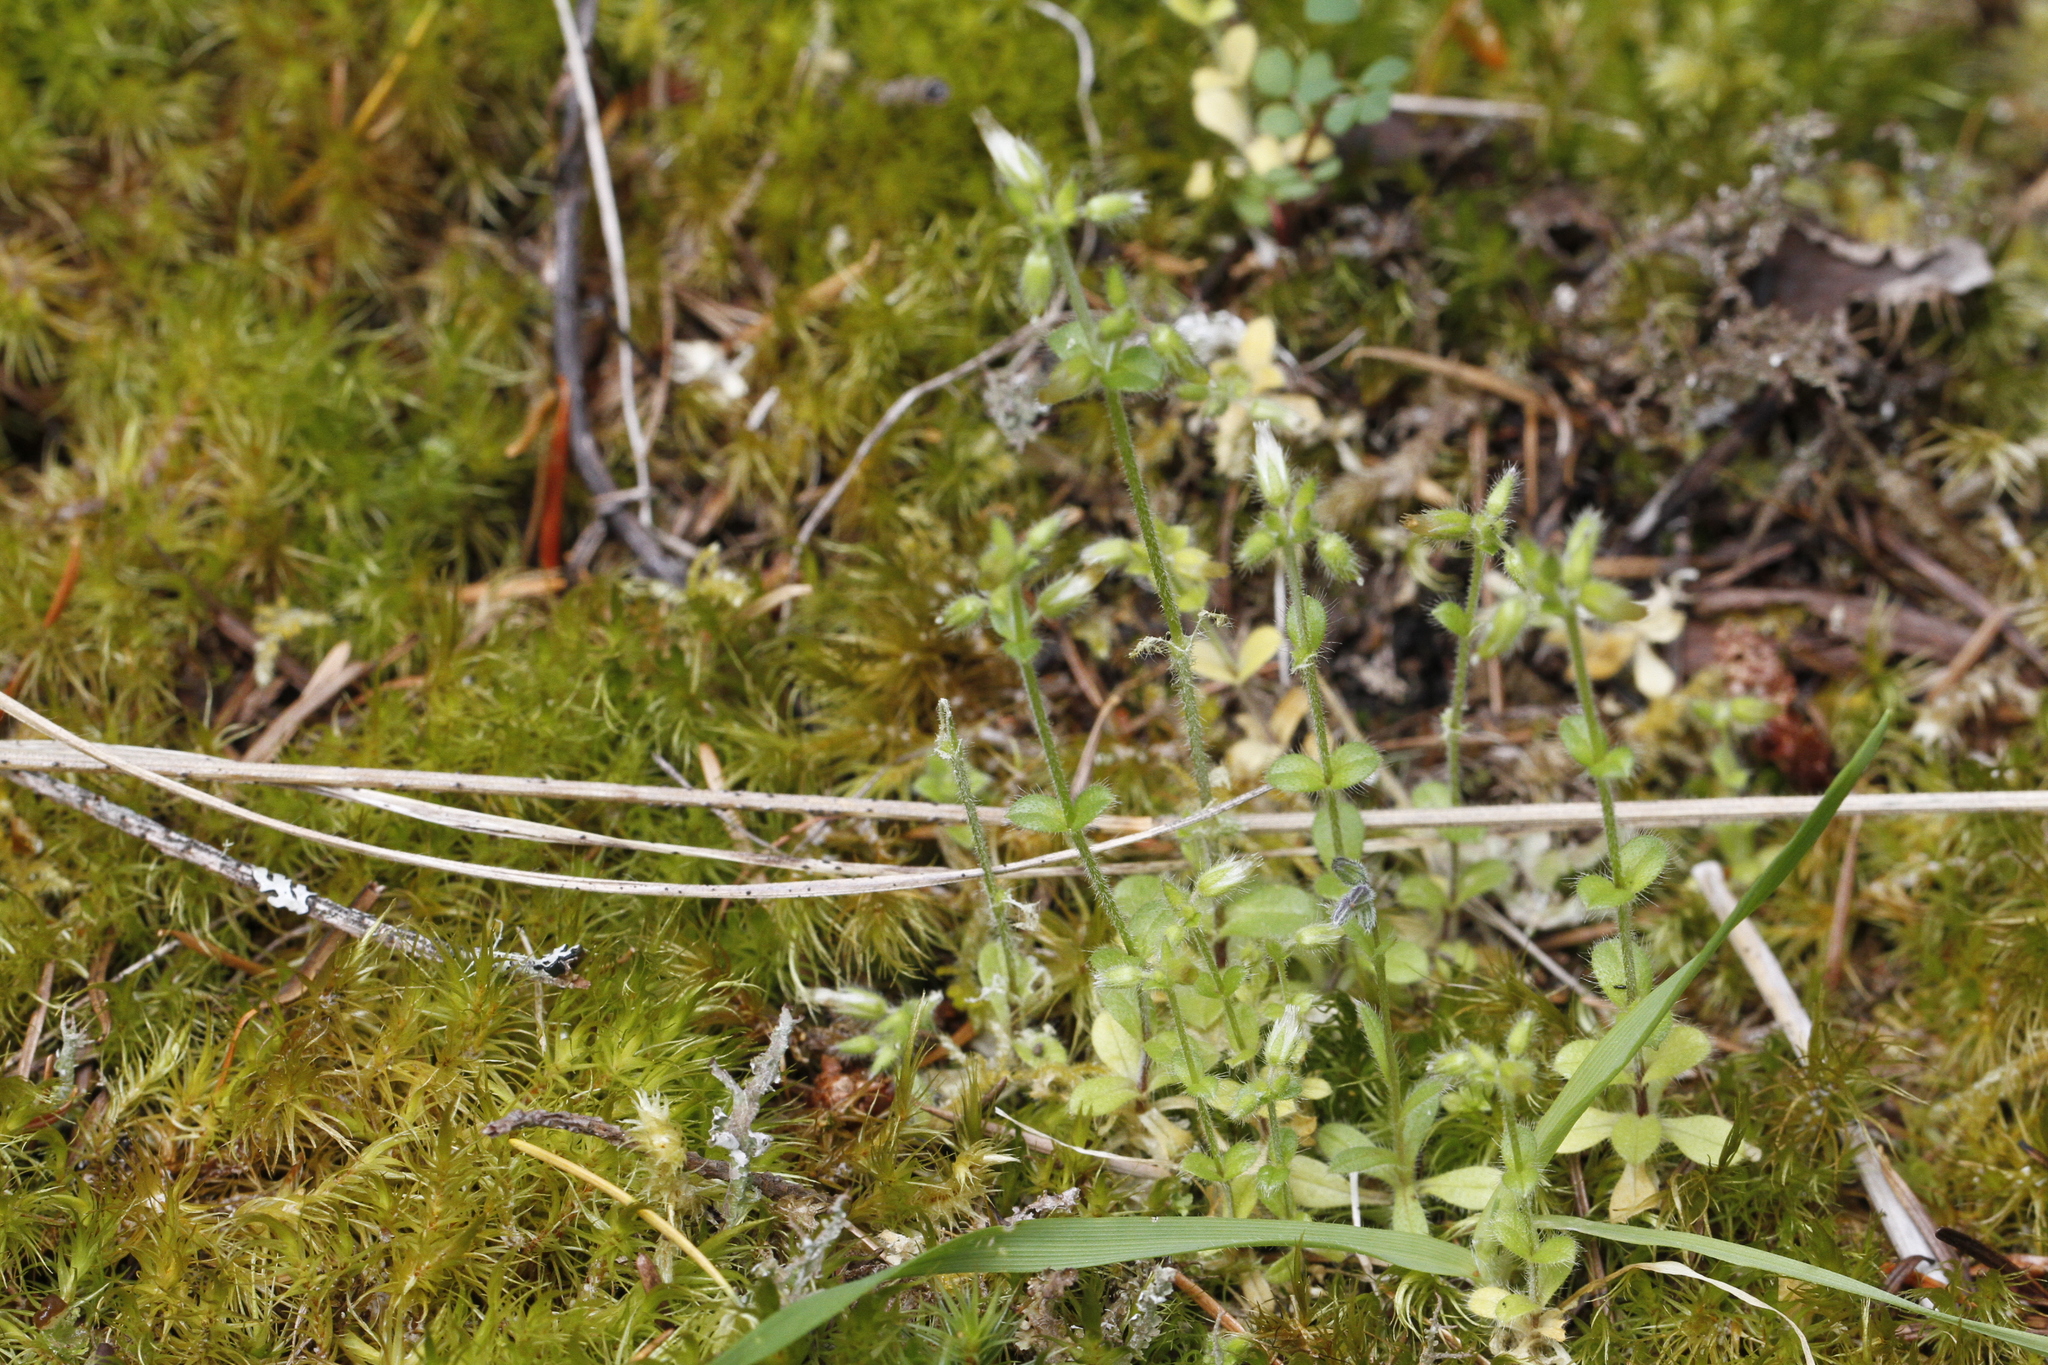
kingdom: Plantae
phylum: Tracheophyta
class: Magnoliopsida
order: Caryophyllales
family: Caryophyllaceae
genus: Cerastium
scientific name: Cerastium glomeratum
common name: Sticky chickweed
